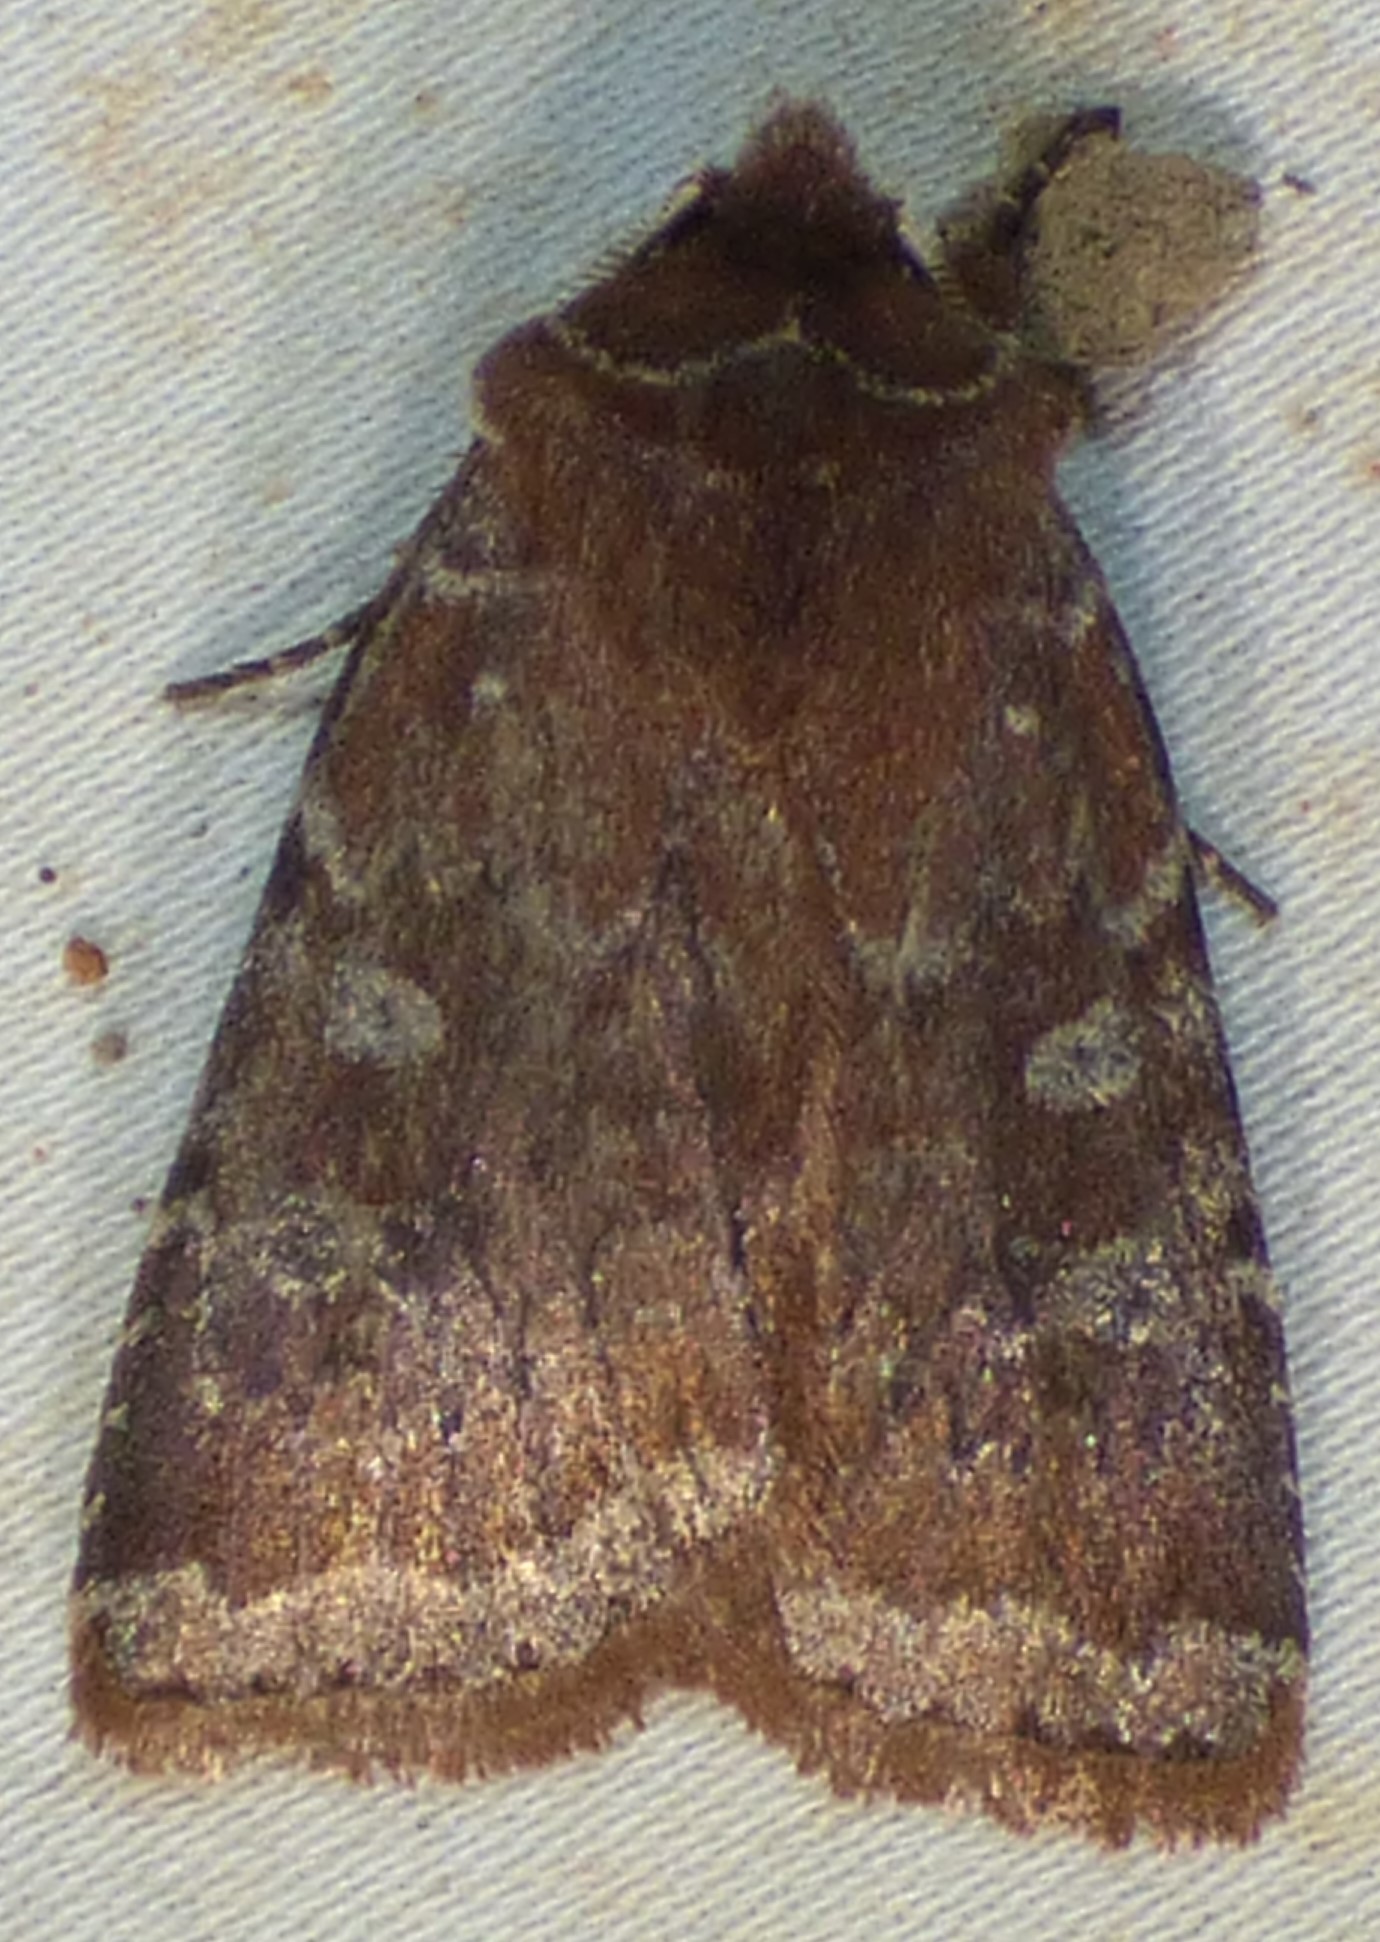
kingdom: Animalia
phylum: Arthropoda
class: Insecta
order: Lepidoptera
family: Noctuidae
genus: Cerastis
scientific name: Cerastis tenebrifera
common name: Reddish speckled dart
